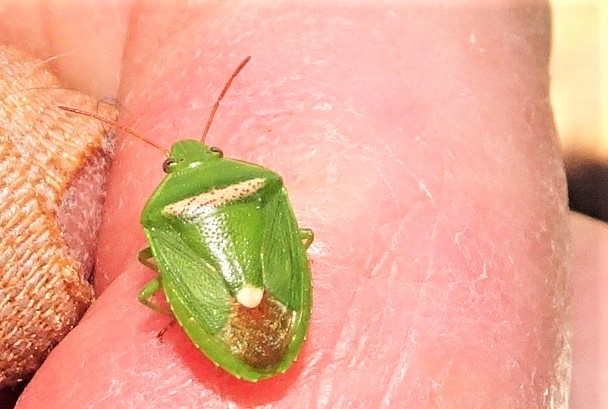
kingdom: Animalia
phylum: Arthropoda
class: Insecta
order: Hemiptera
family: Pentatomidae
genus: Ocirrhoe
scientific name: Ocirrhoe
